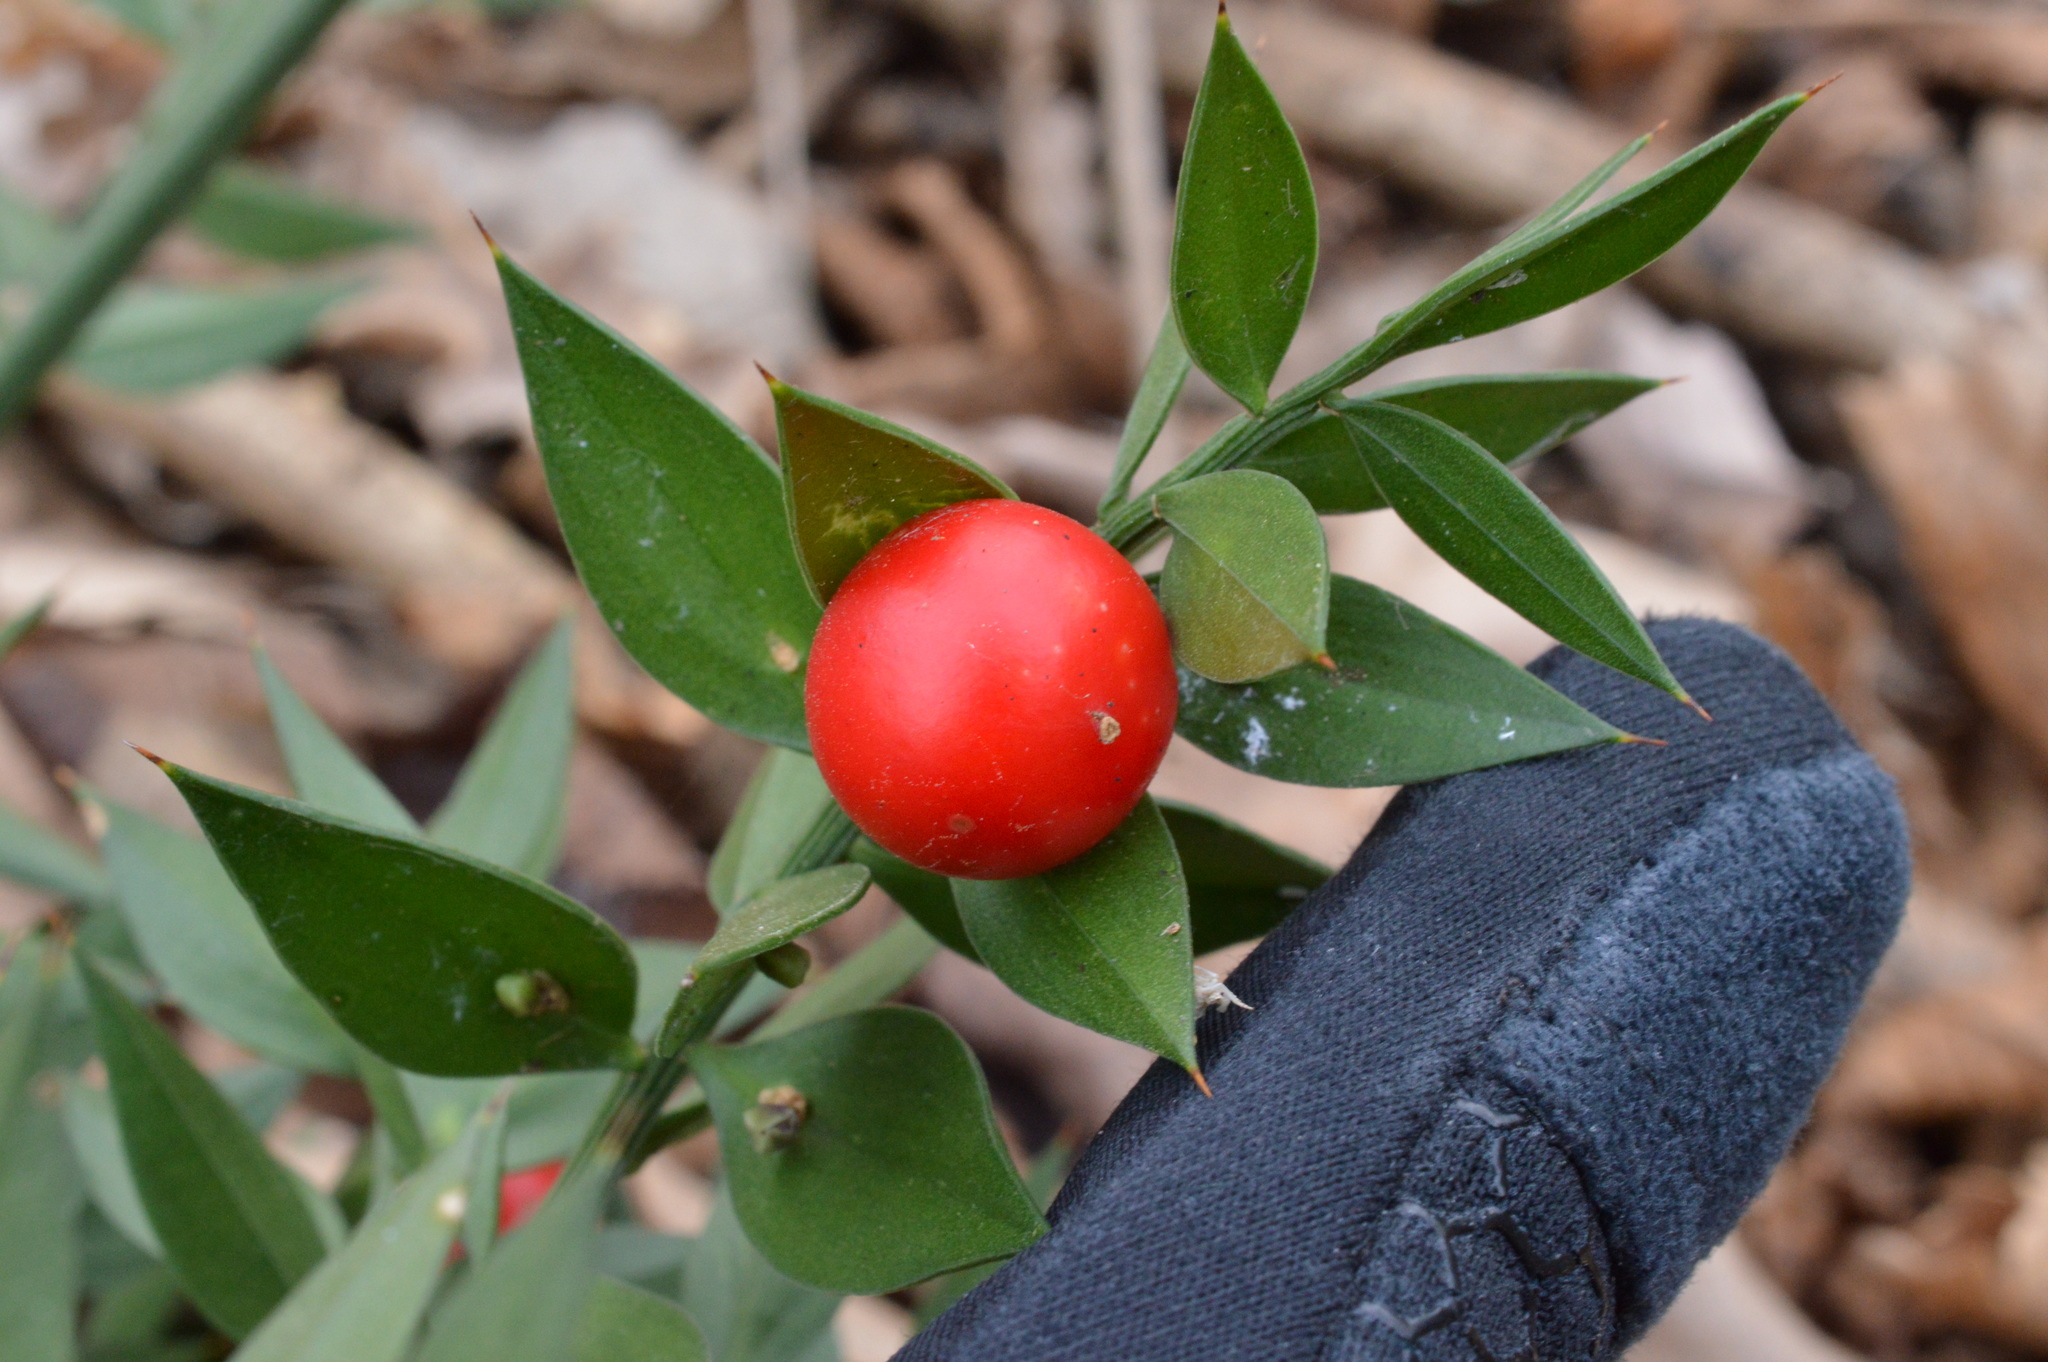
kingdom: Plantae
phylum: Tracheophyta
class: Liliopsida
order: Asparagales
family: Asparagaceae
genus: Ruscus
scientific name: Ruscus aculeatus
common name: Butcher's-broom
